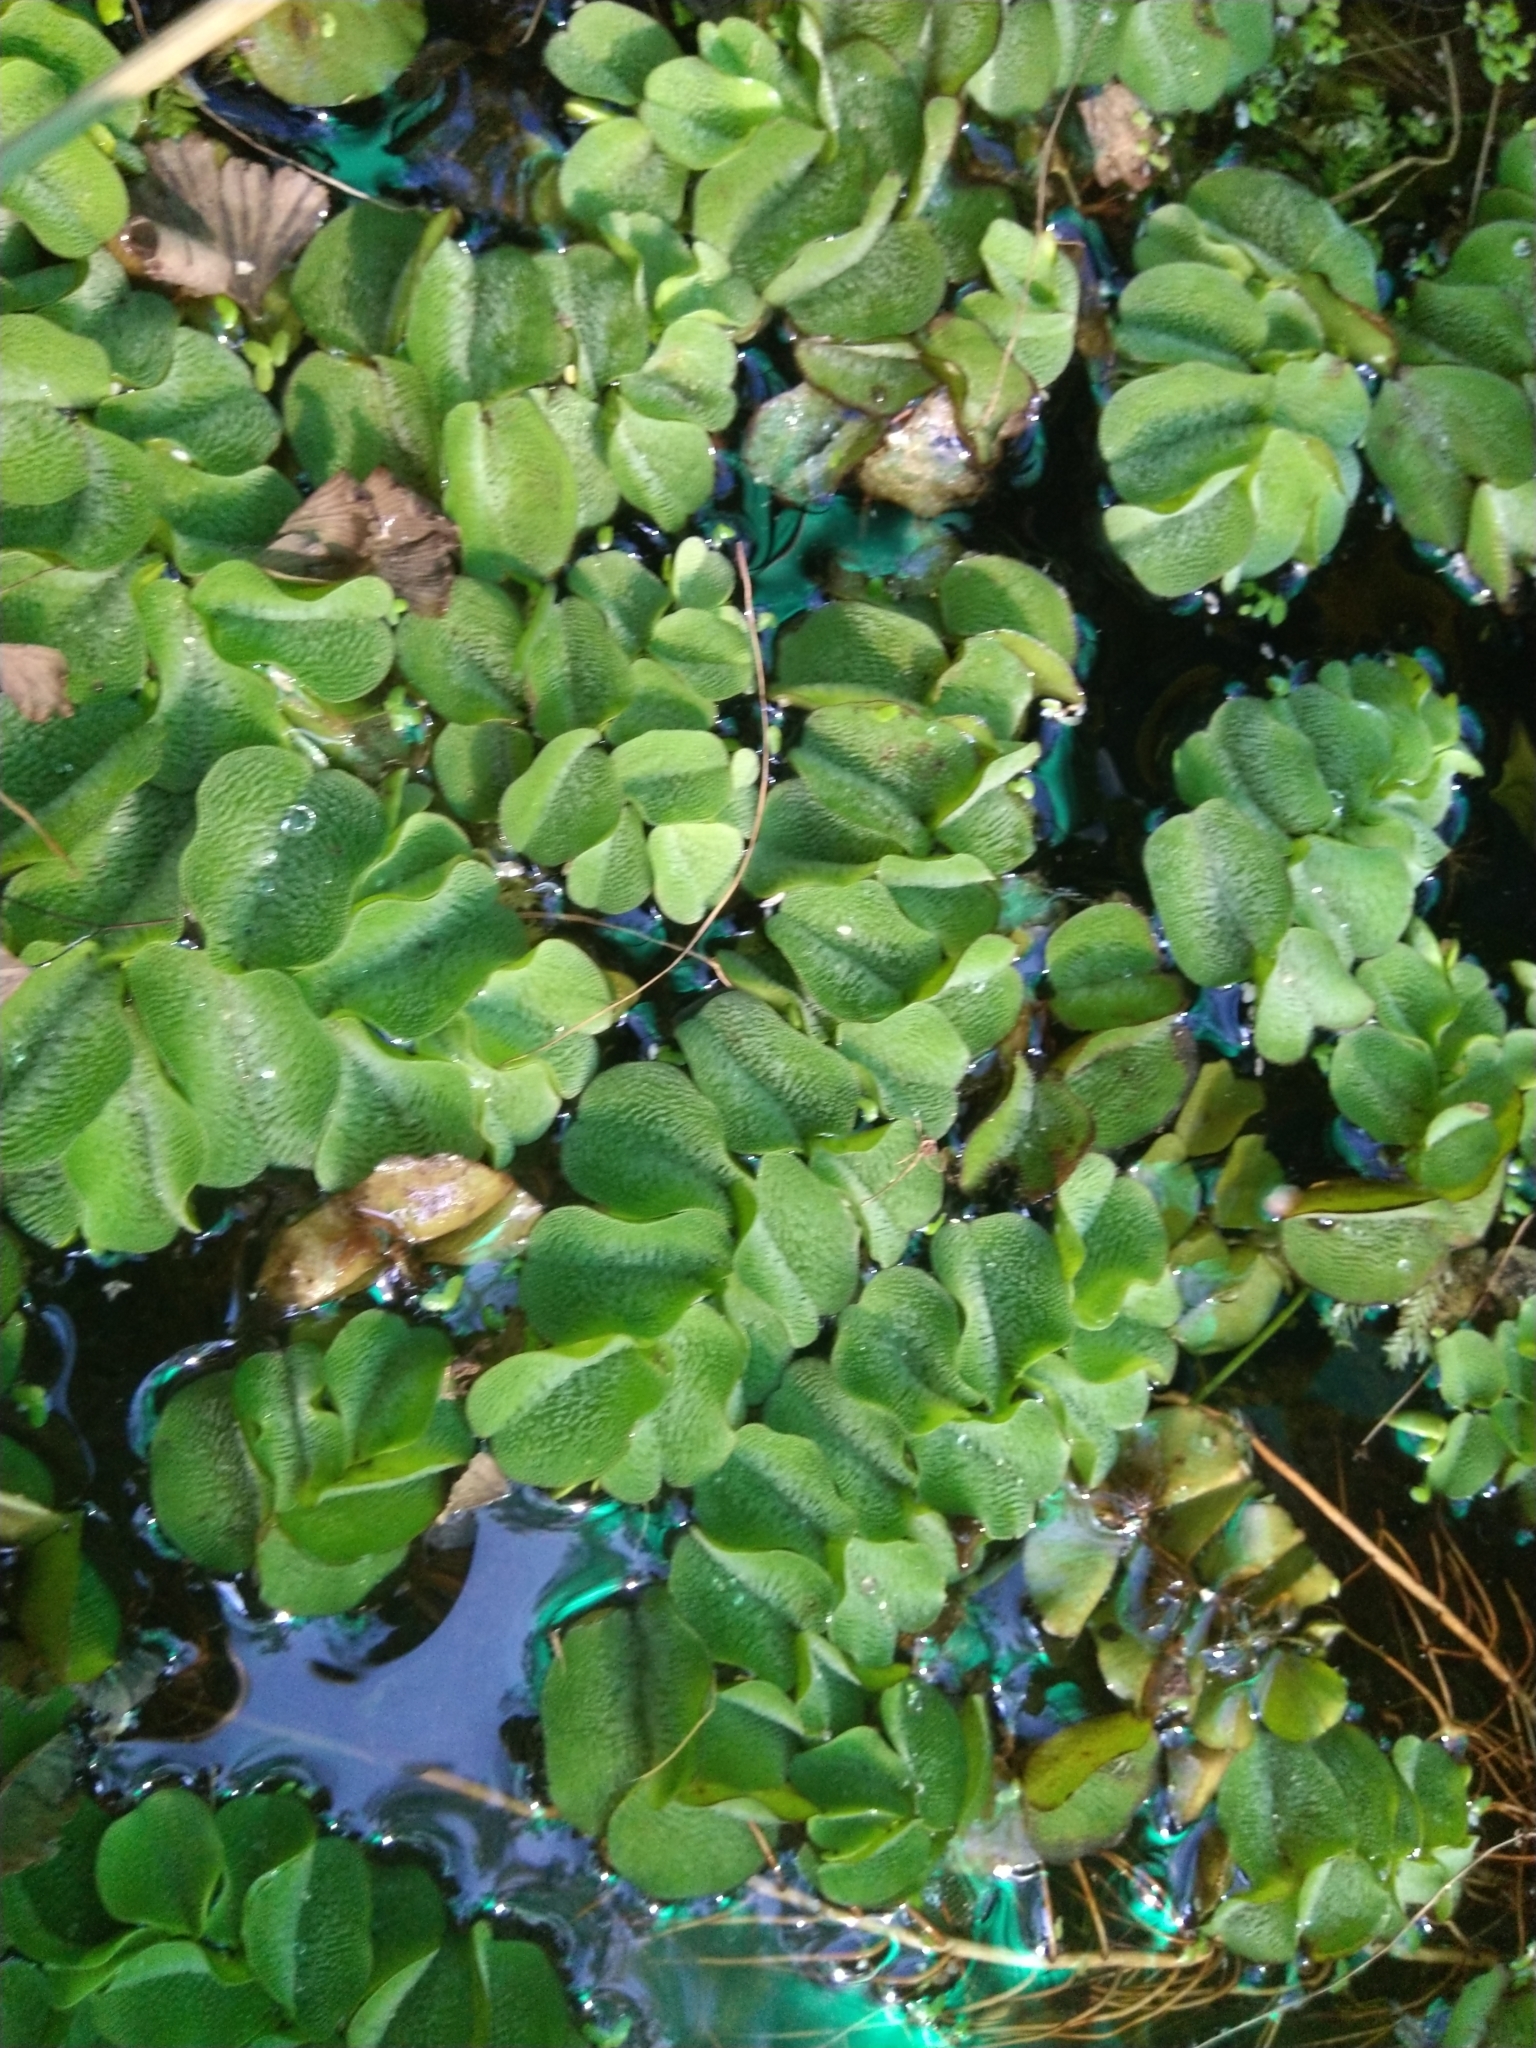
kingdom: Plantae
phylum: Tracheophyta
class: Polypodiopsida
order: Salviniales
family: Salviniaceae
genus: Salvinia
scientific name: Salvinia molesta
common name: Kariba weed
